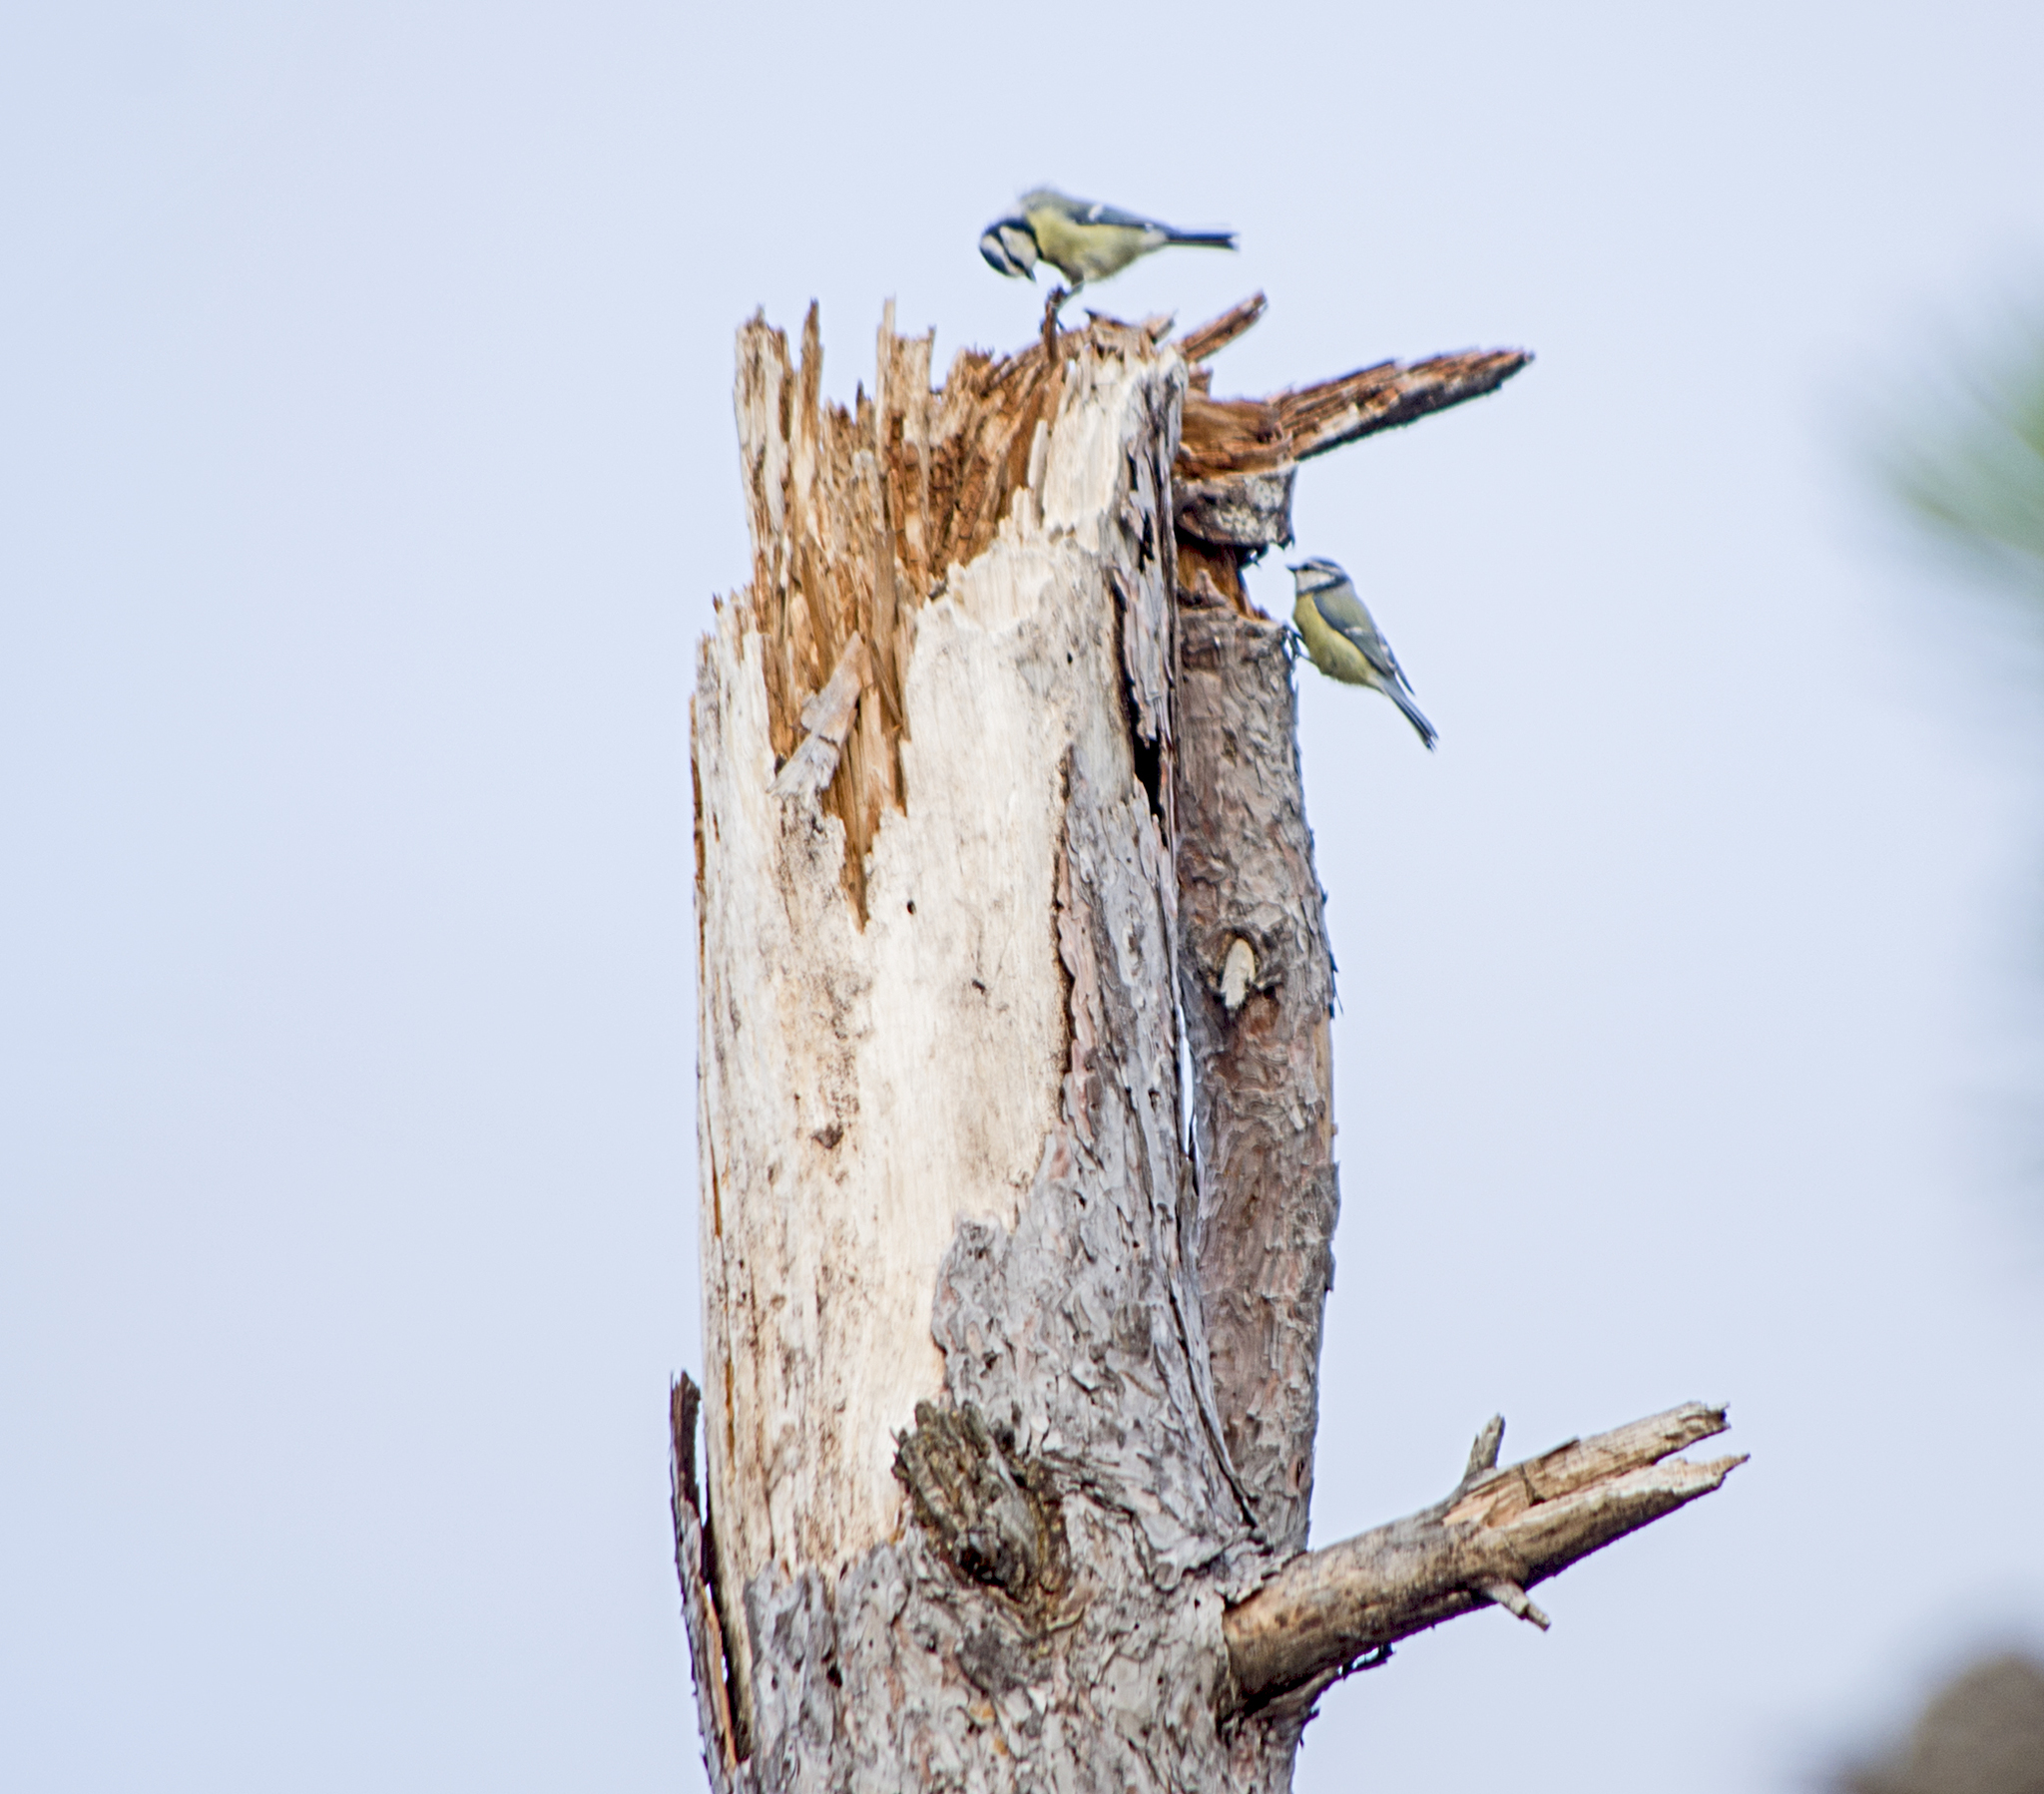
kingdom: Animalia
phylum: Chordata
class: Aves
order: Passeriformes
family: Paridae
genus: Cyanistes
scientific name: Cyanistes caeruleus
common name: Eurasian blue tit
